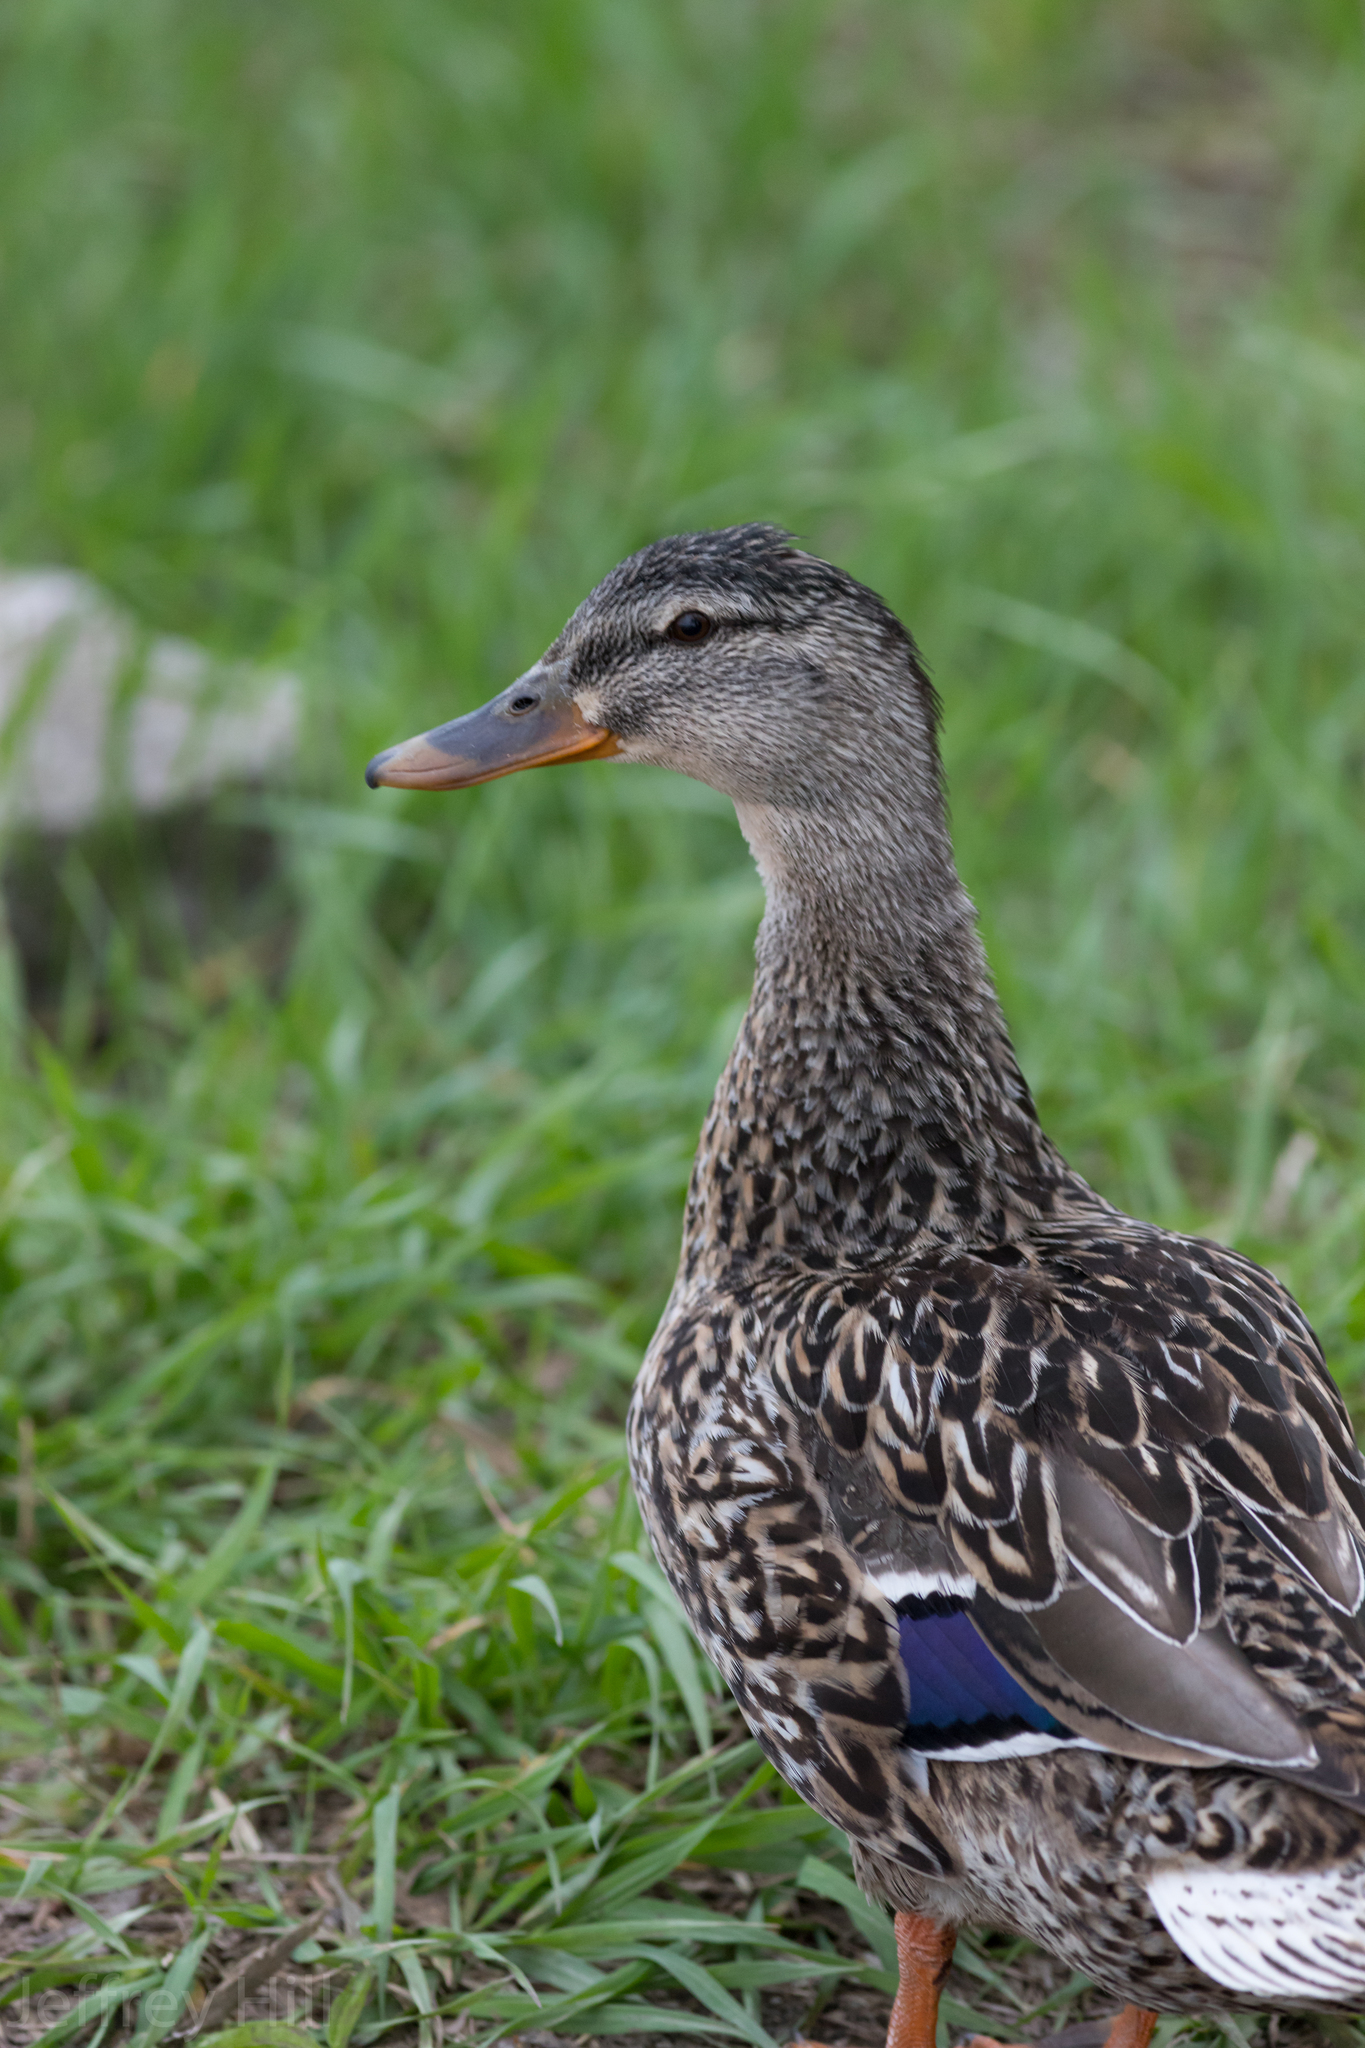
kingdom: Animalia
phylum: Chordata
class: Aves
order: Anseriformes
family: Anatidae
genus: Anas
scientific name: Anas platyrhynchos
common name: Mallard
